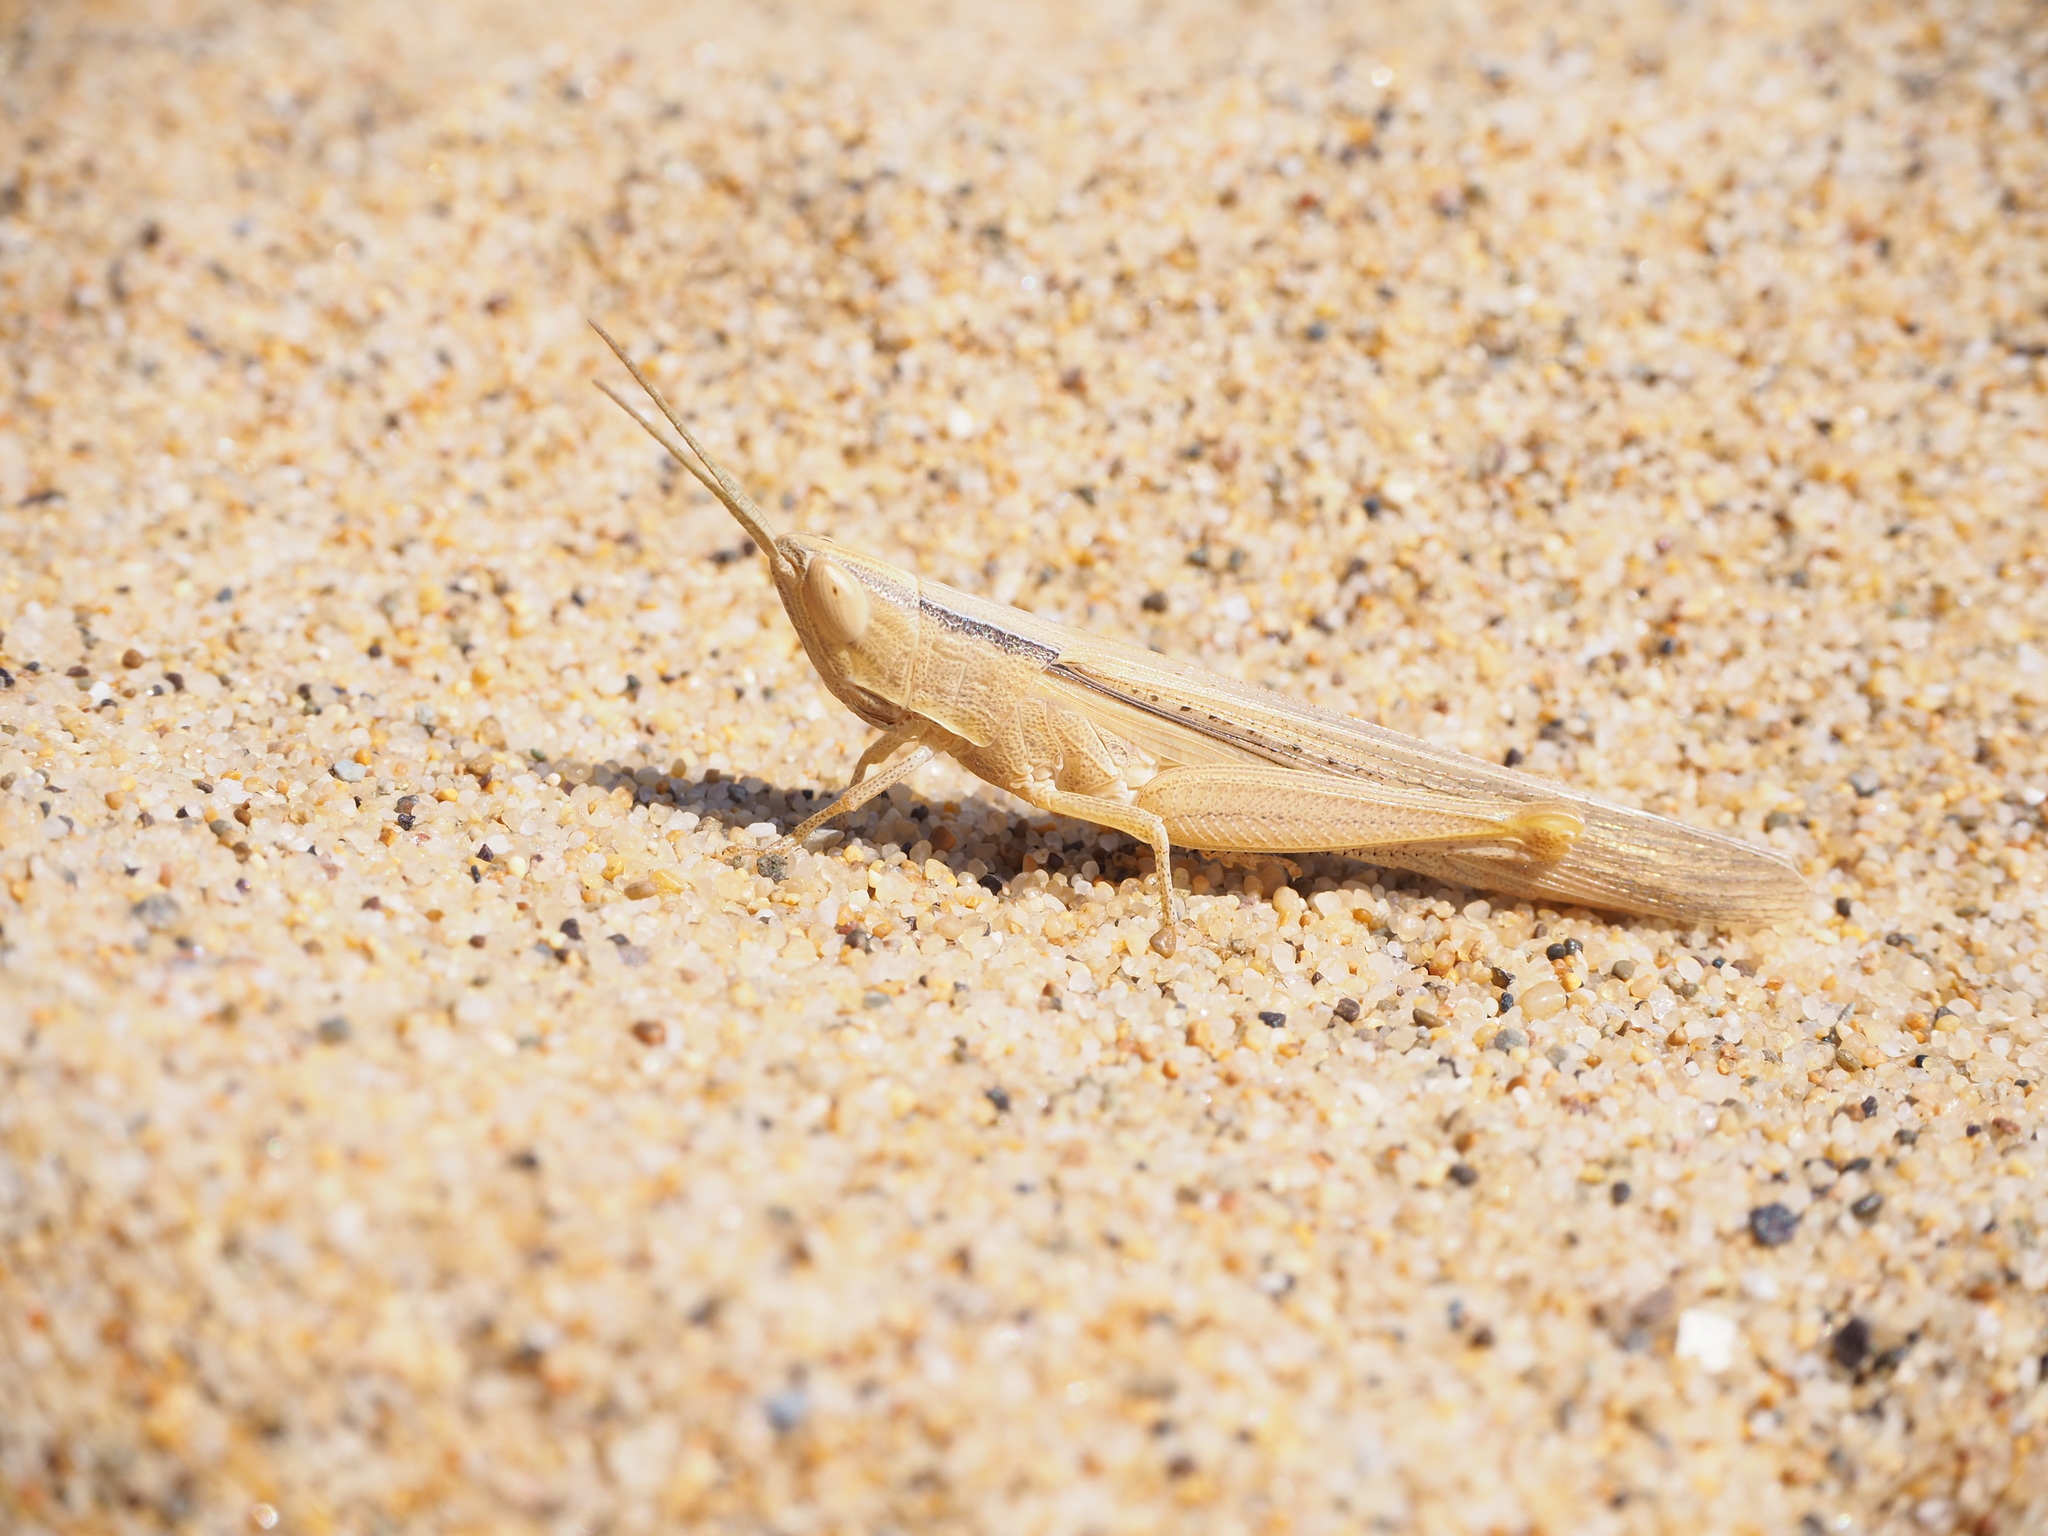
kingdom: Animalia
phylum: Arthropoda
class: Insecta
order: Orthoptera
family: Acrididae
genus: Ochrilidia
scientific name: Ochrilidia nuragica
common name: Sardinian cylindric grasshopper
